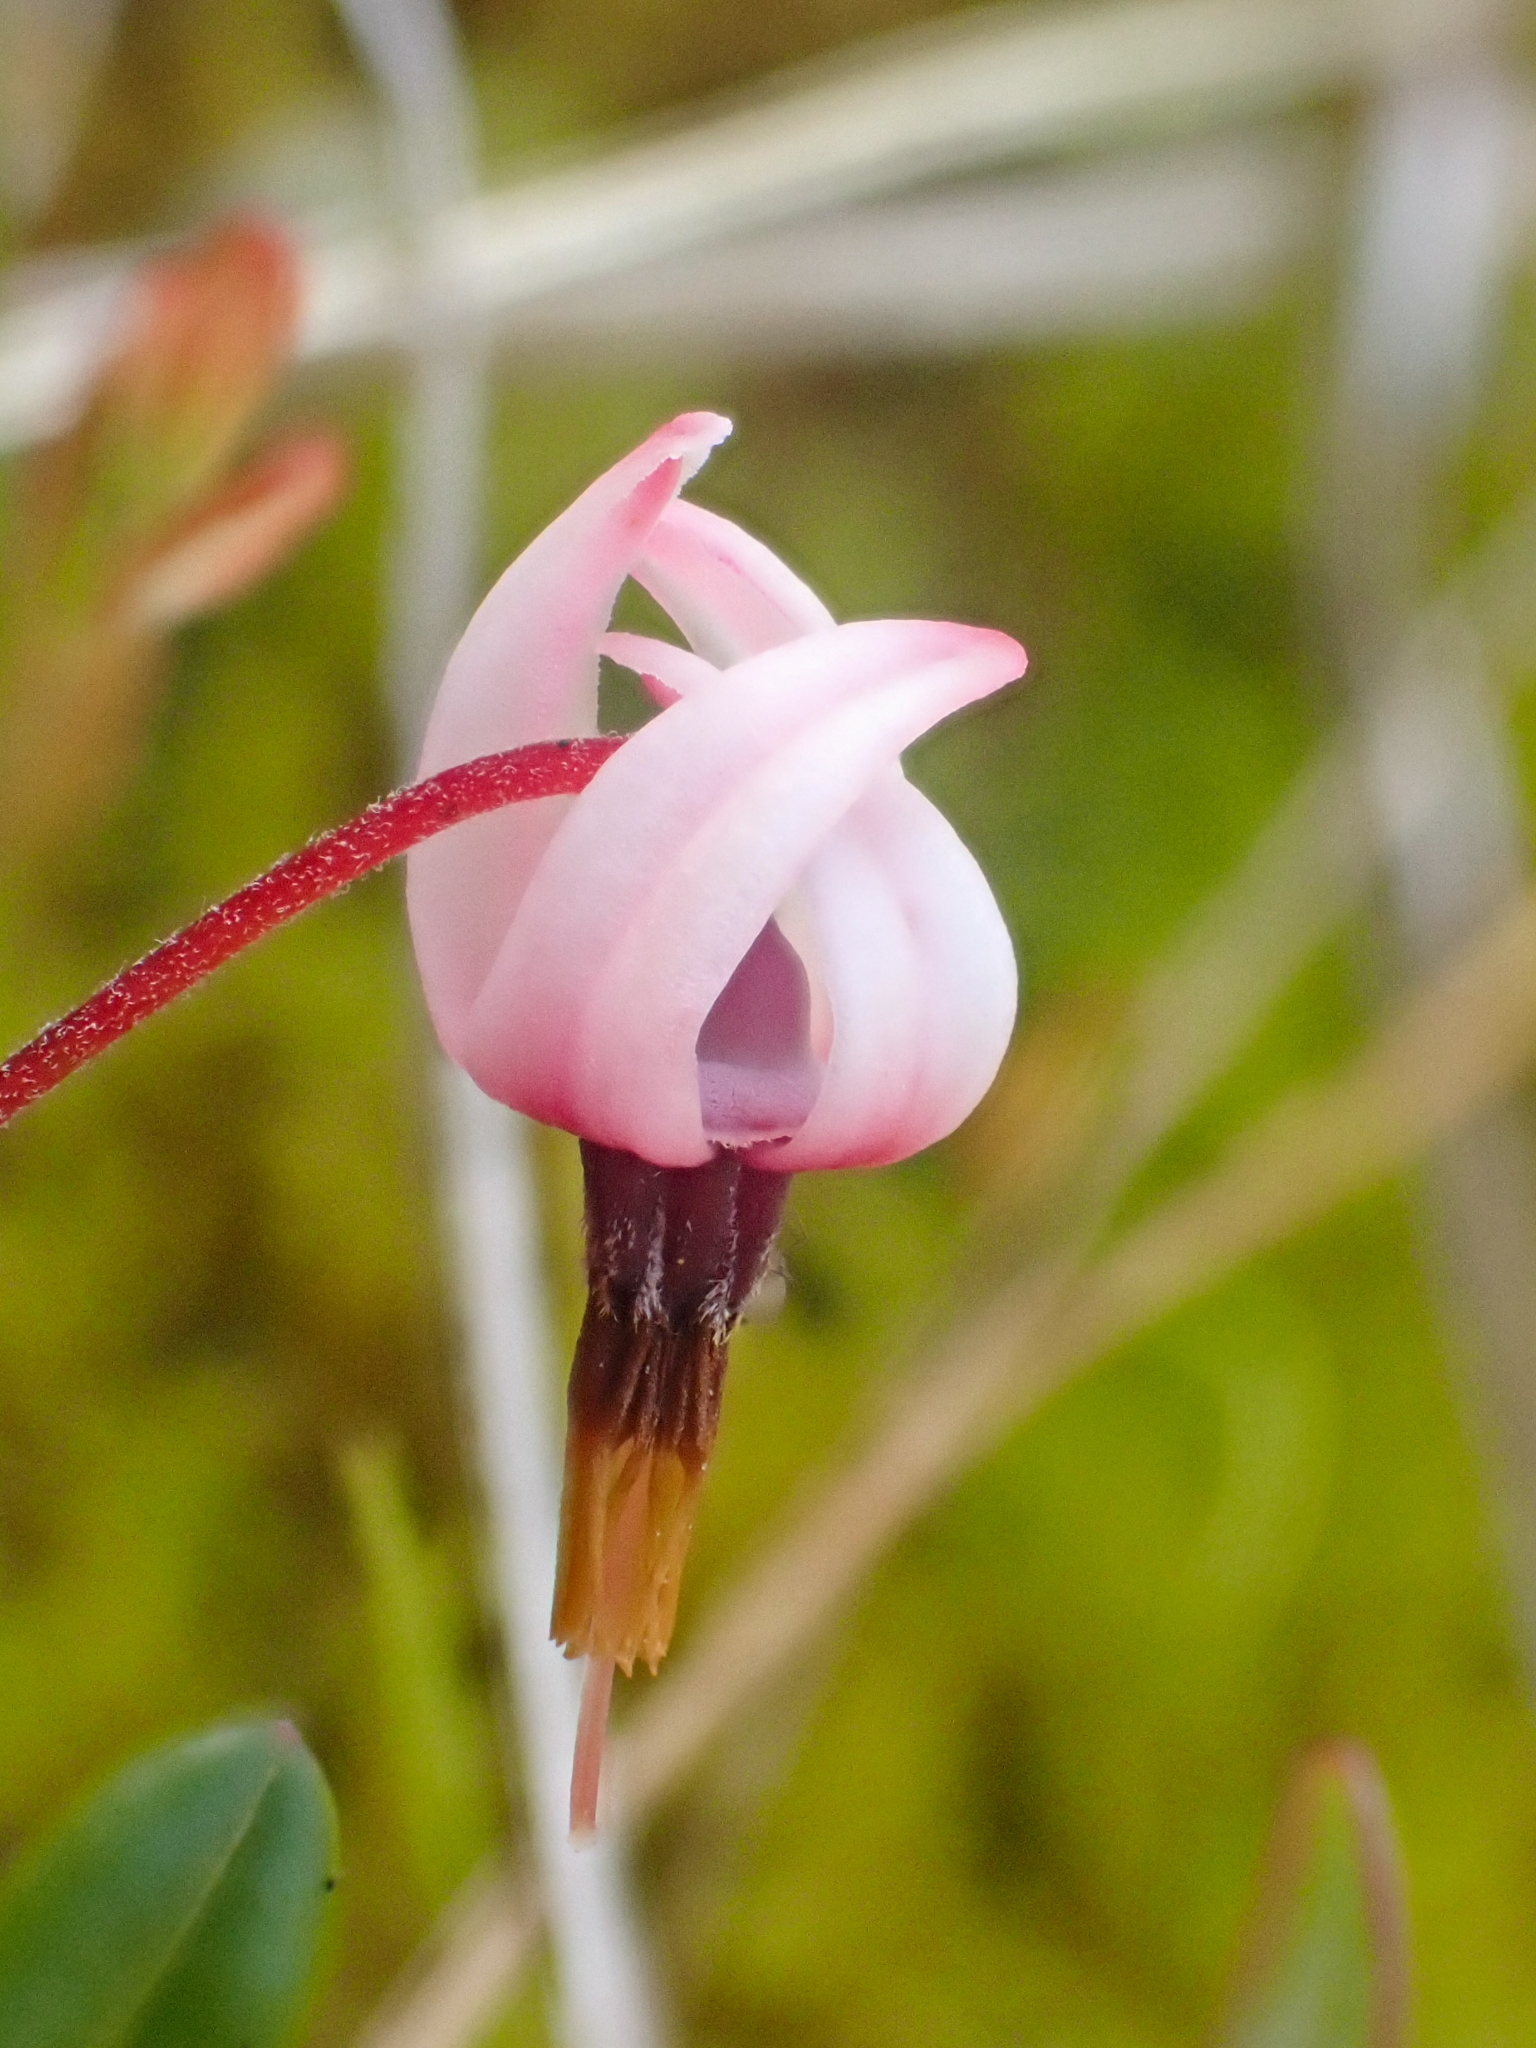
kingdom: Plantae
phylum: Tracheophyta
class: Magnoliopsida
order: Ericales
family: Ericaceae
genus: Vaccinium
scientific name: Vaccinium oxycoccos
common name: Cranberry
